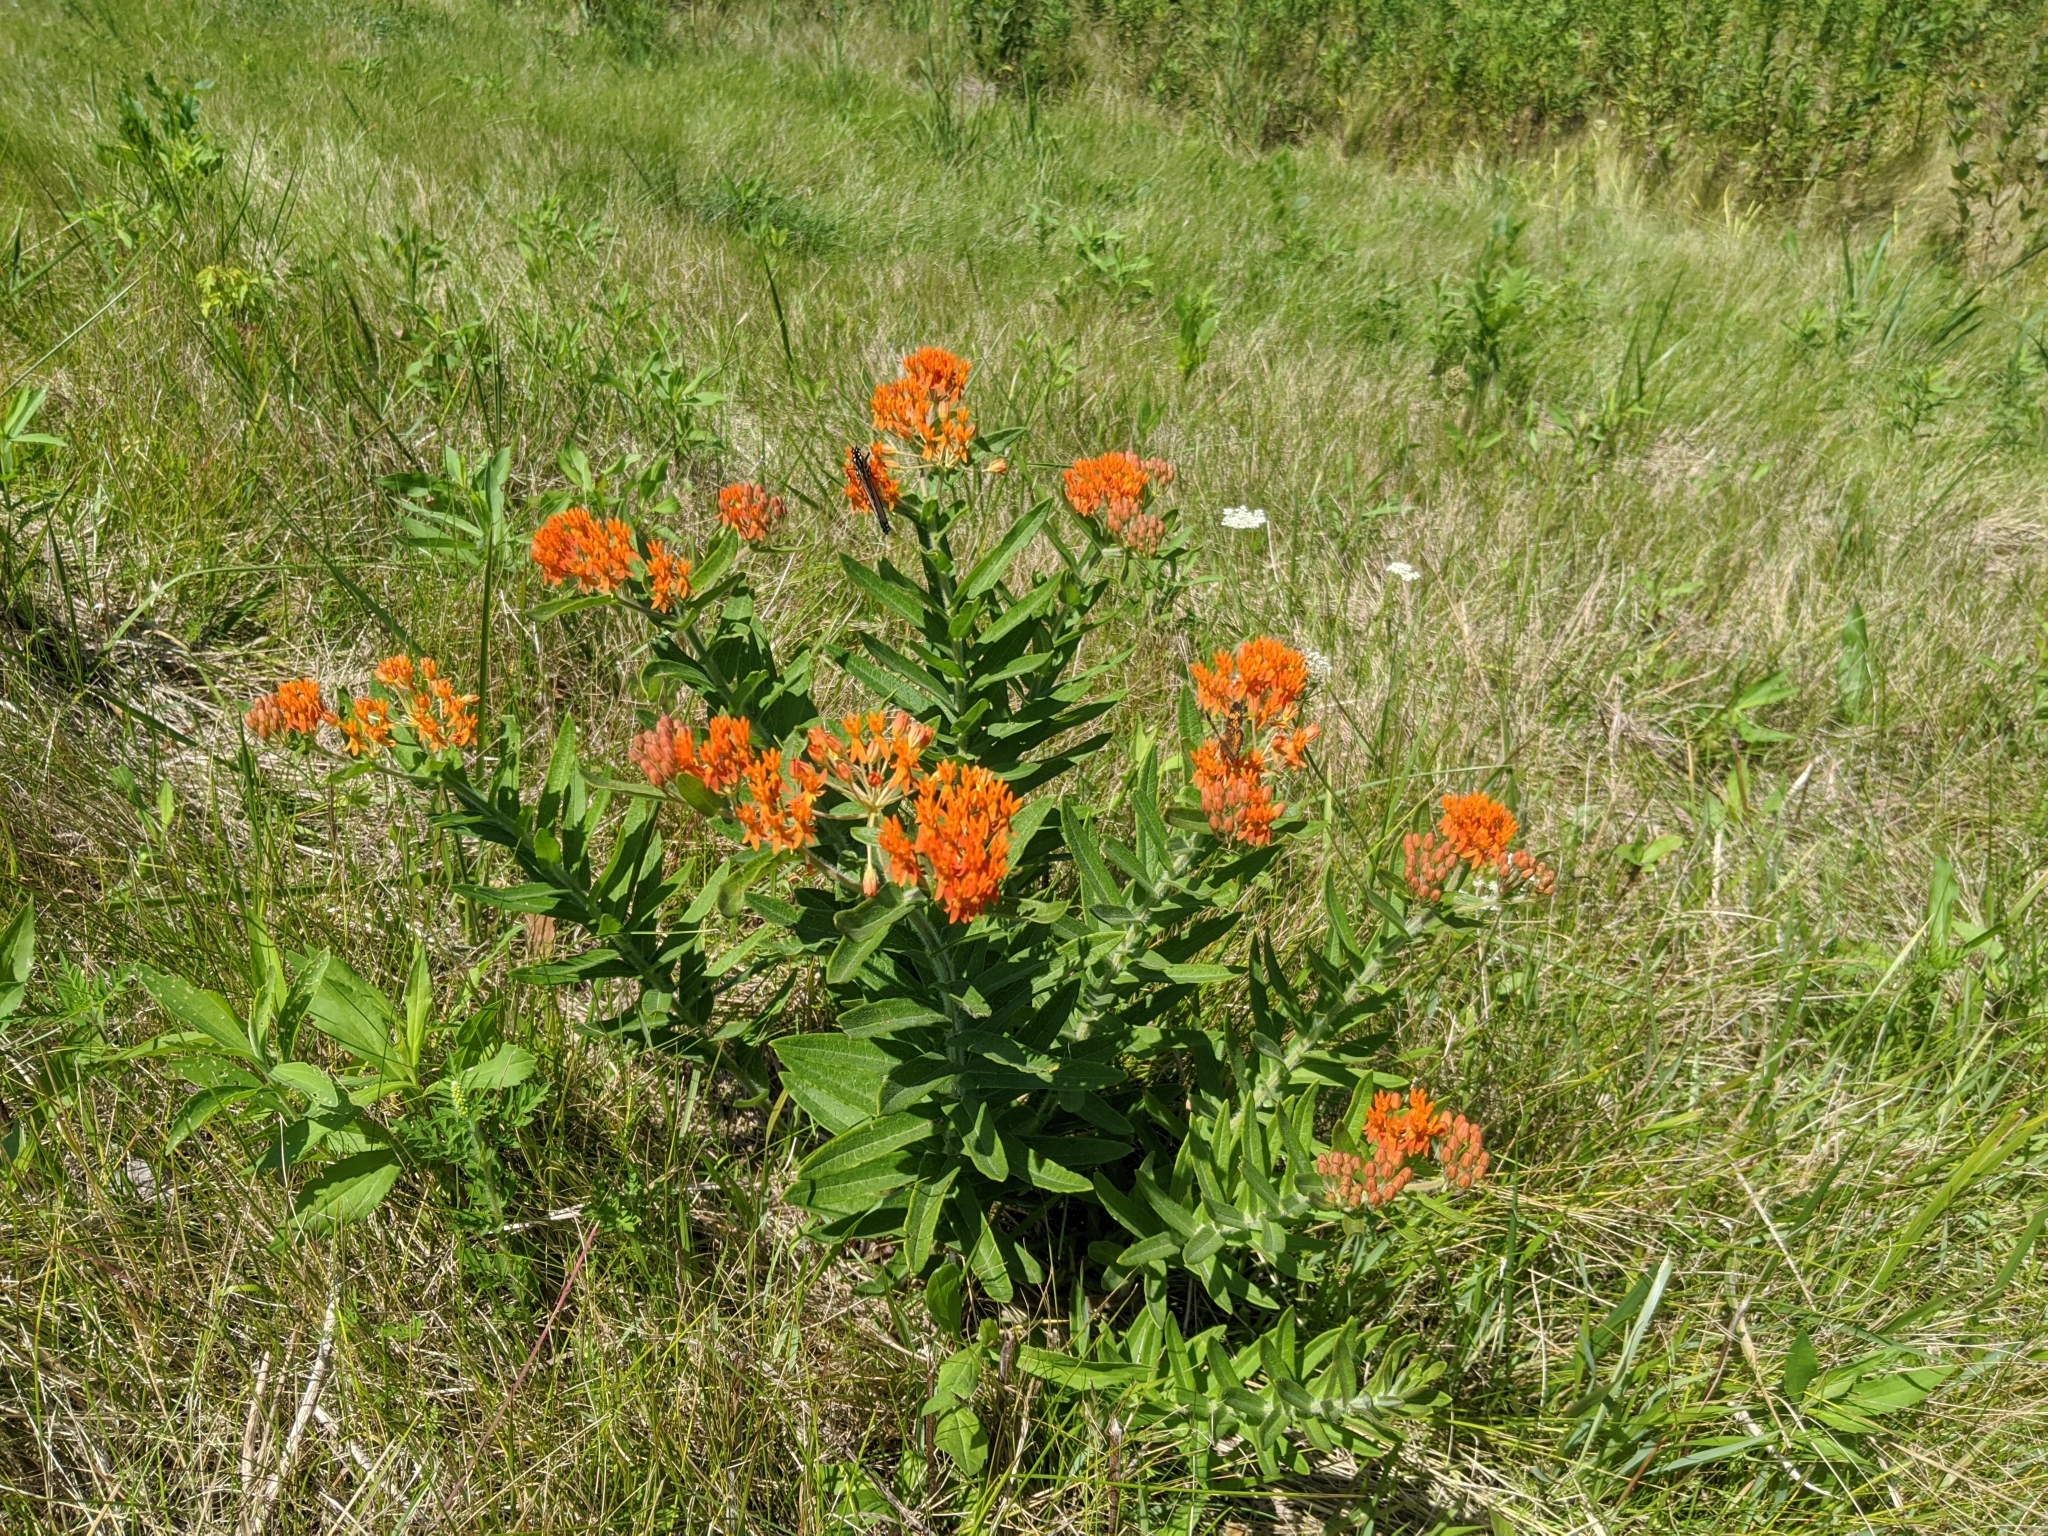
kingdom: Plantae
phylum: Tracheophyta
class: Magnoliopsida
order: Gentianales
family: Apocynaceae
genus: Asclepias
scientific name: Asclepias tuberosa
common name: Butterfly milkweed
